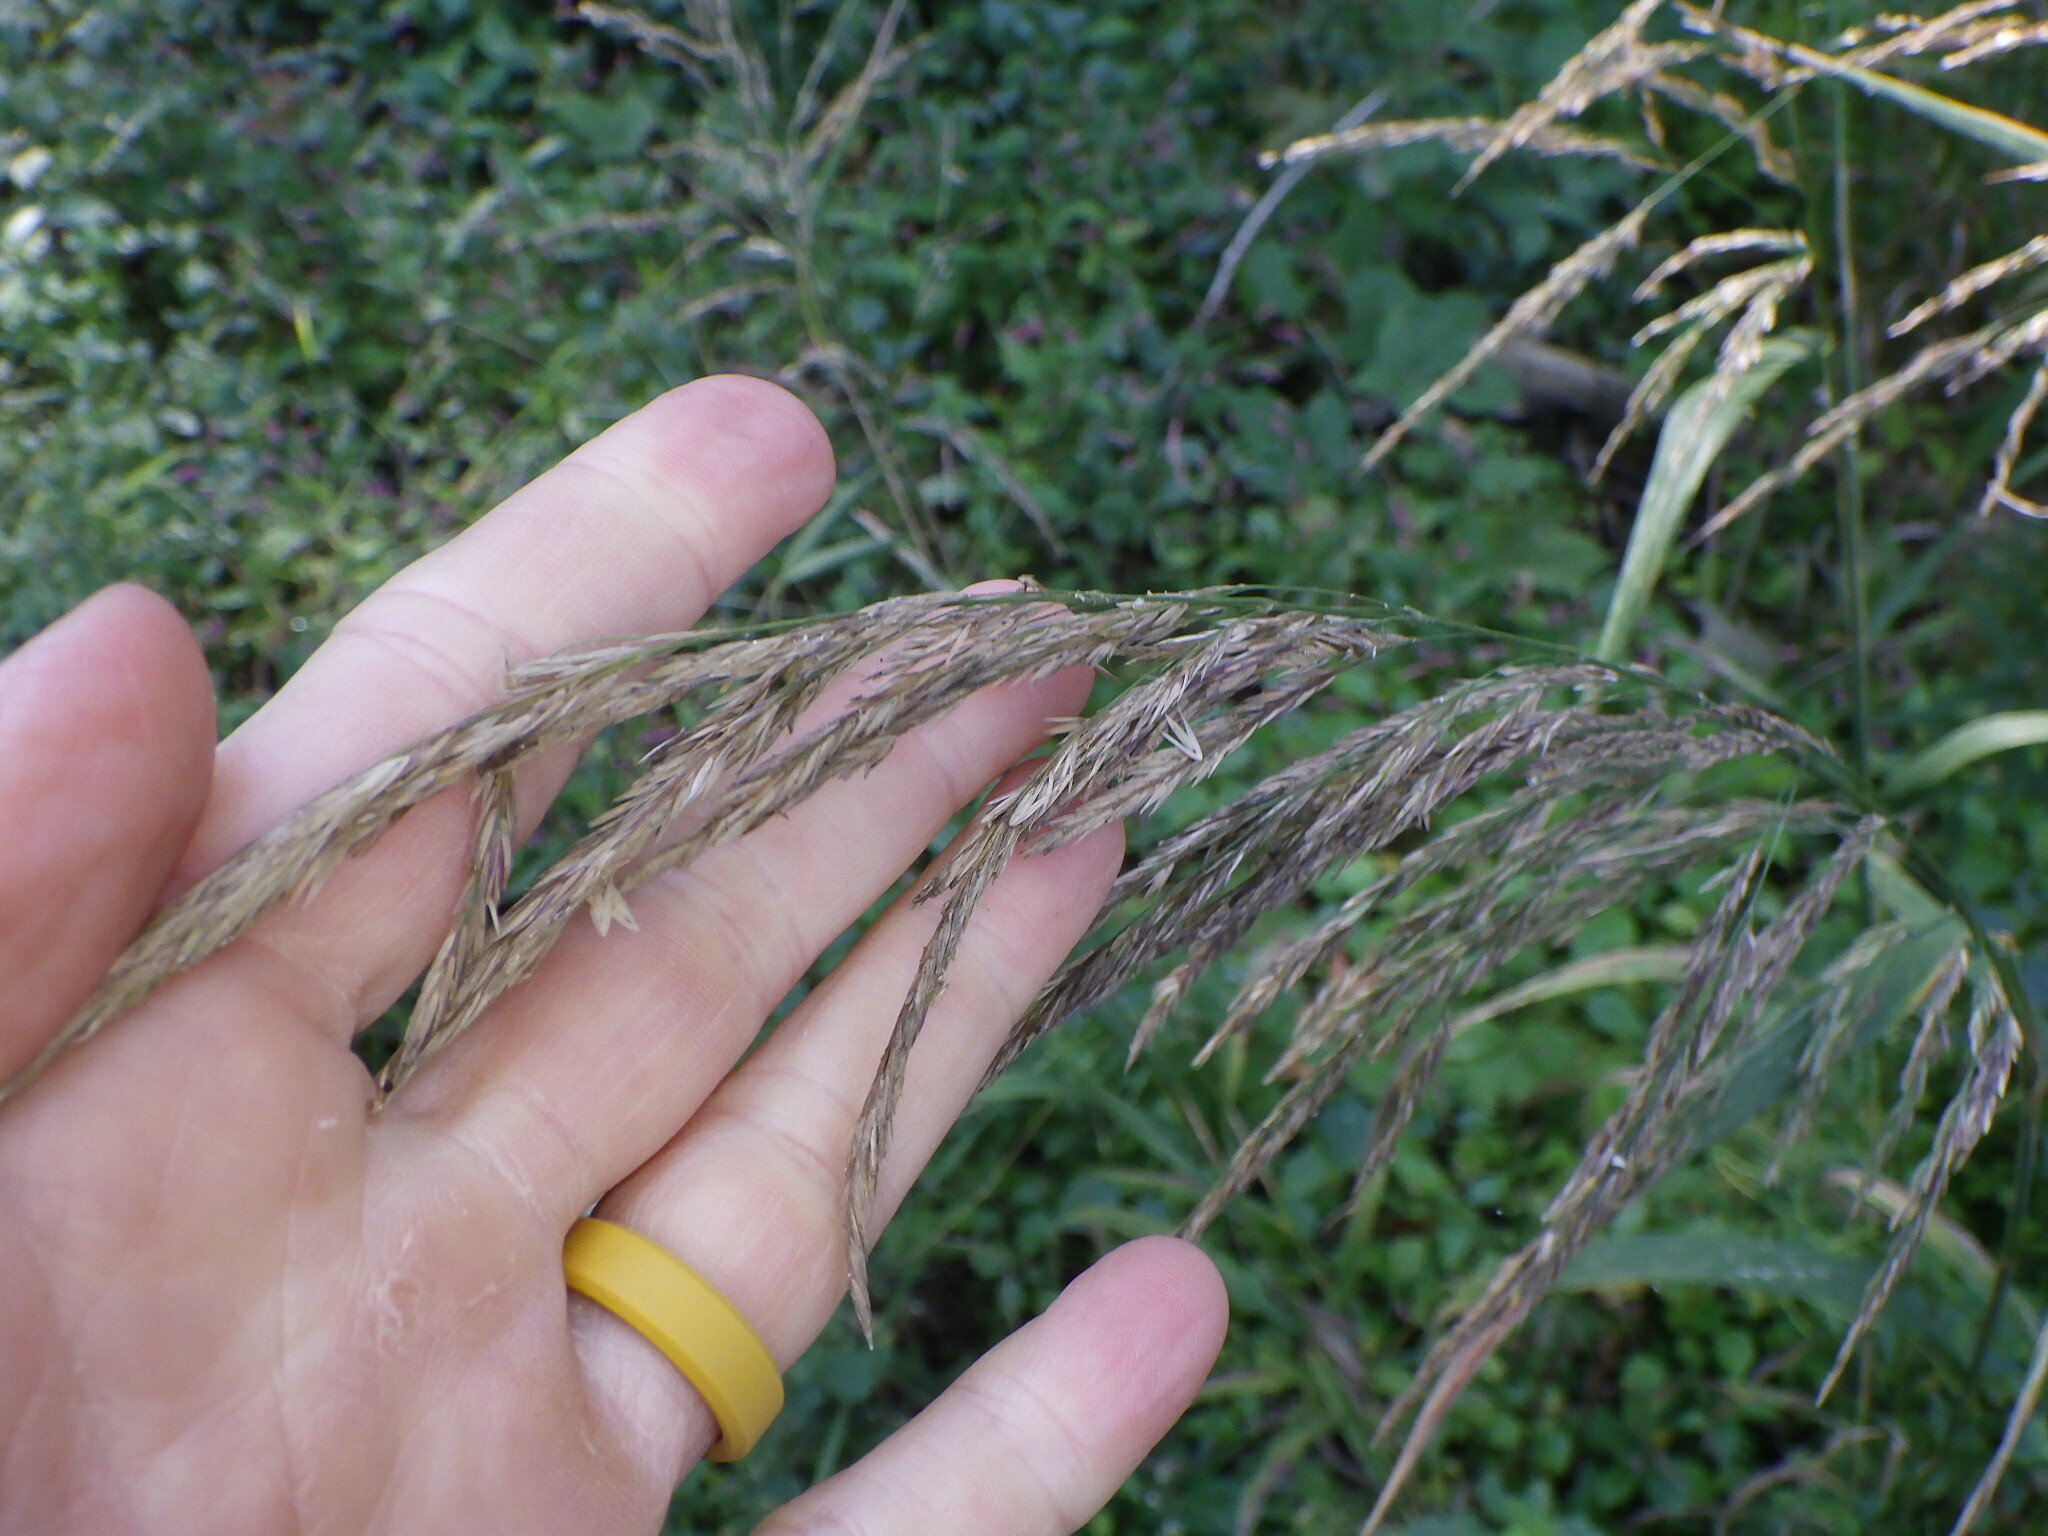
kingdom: Plantae
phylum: Tracheophyta
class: Liliopsida
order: Poales
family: Poaceae
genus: Cinna
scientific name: Cinna arundinacea
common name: Stout woodreed
